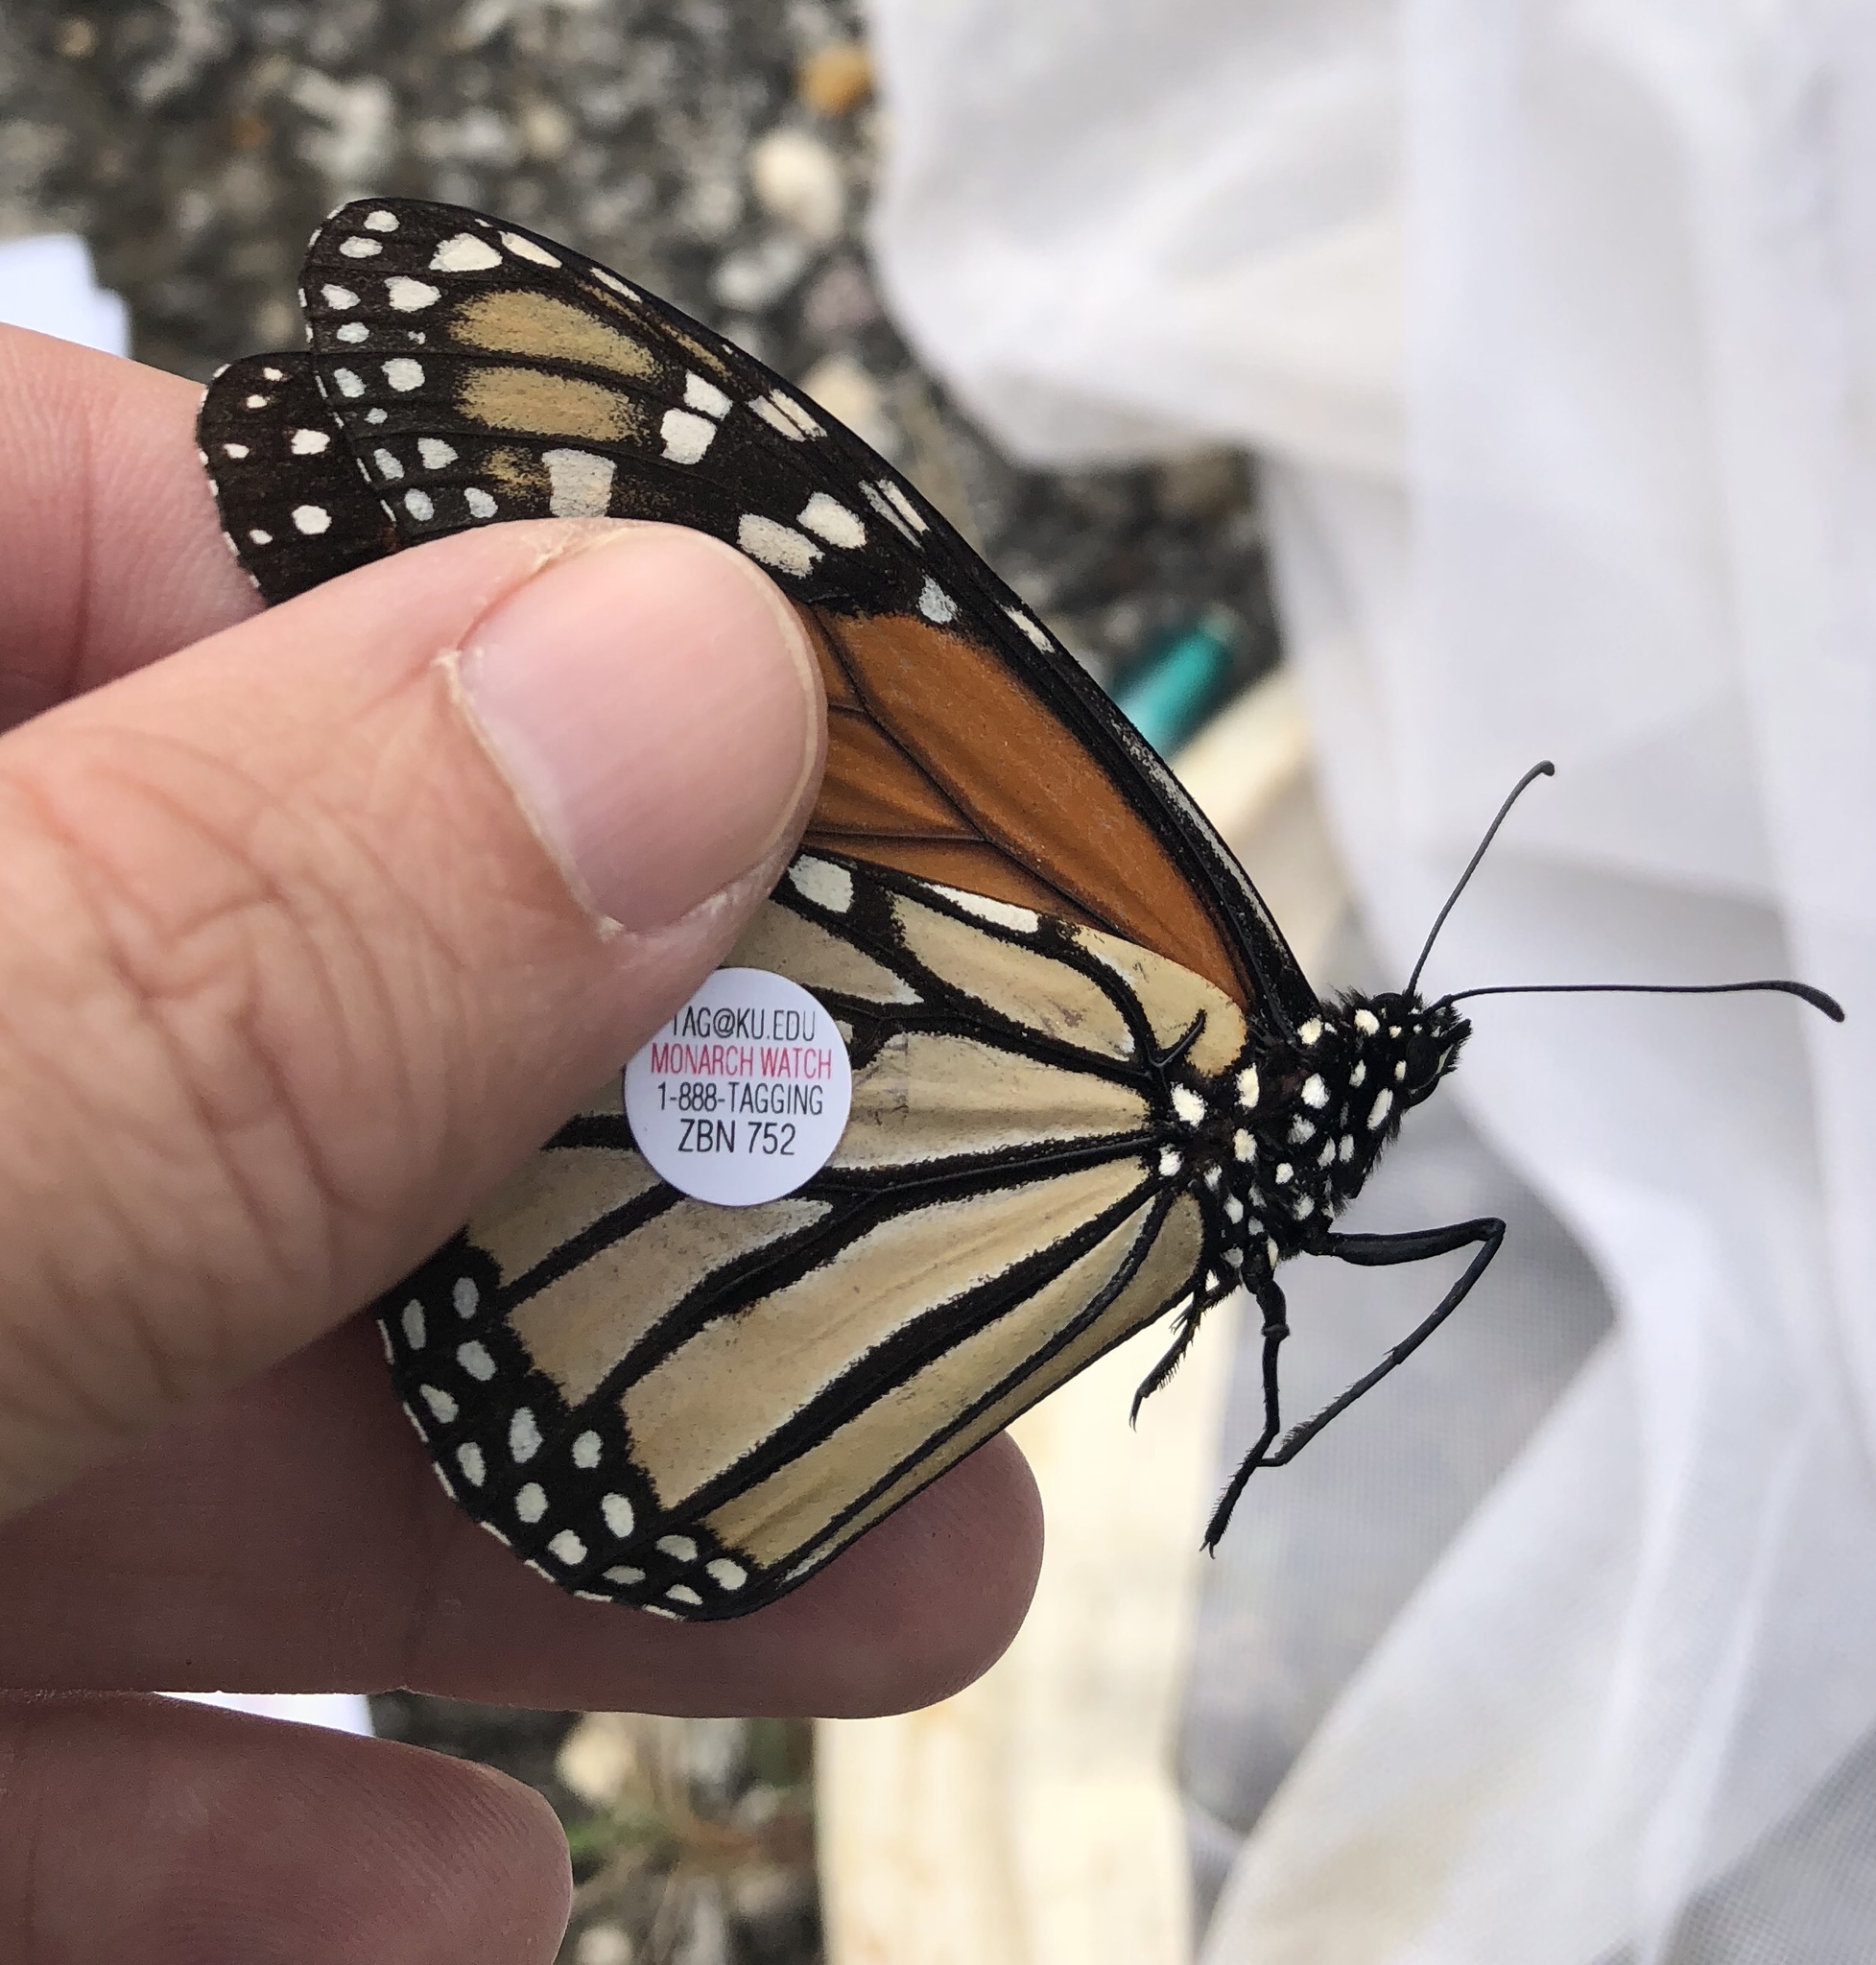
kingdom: Animalia
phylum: Arthropoda
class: Insecta
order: Lepidoptera
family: Nymphalidae
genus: Danaus
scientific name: Danaus plexippus
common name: Monarch
